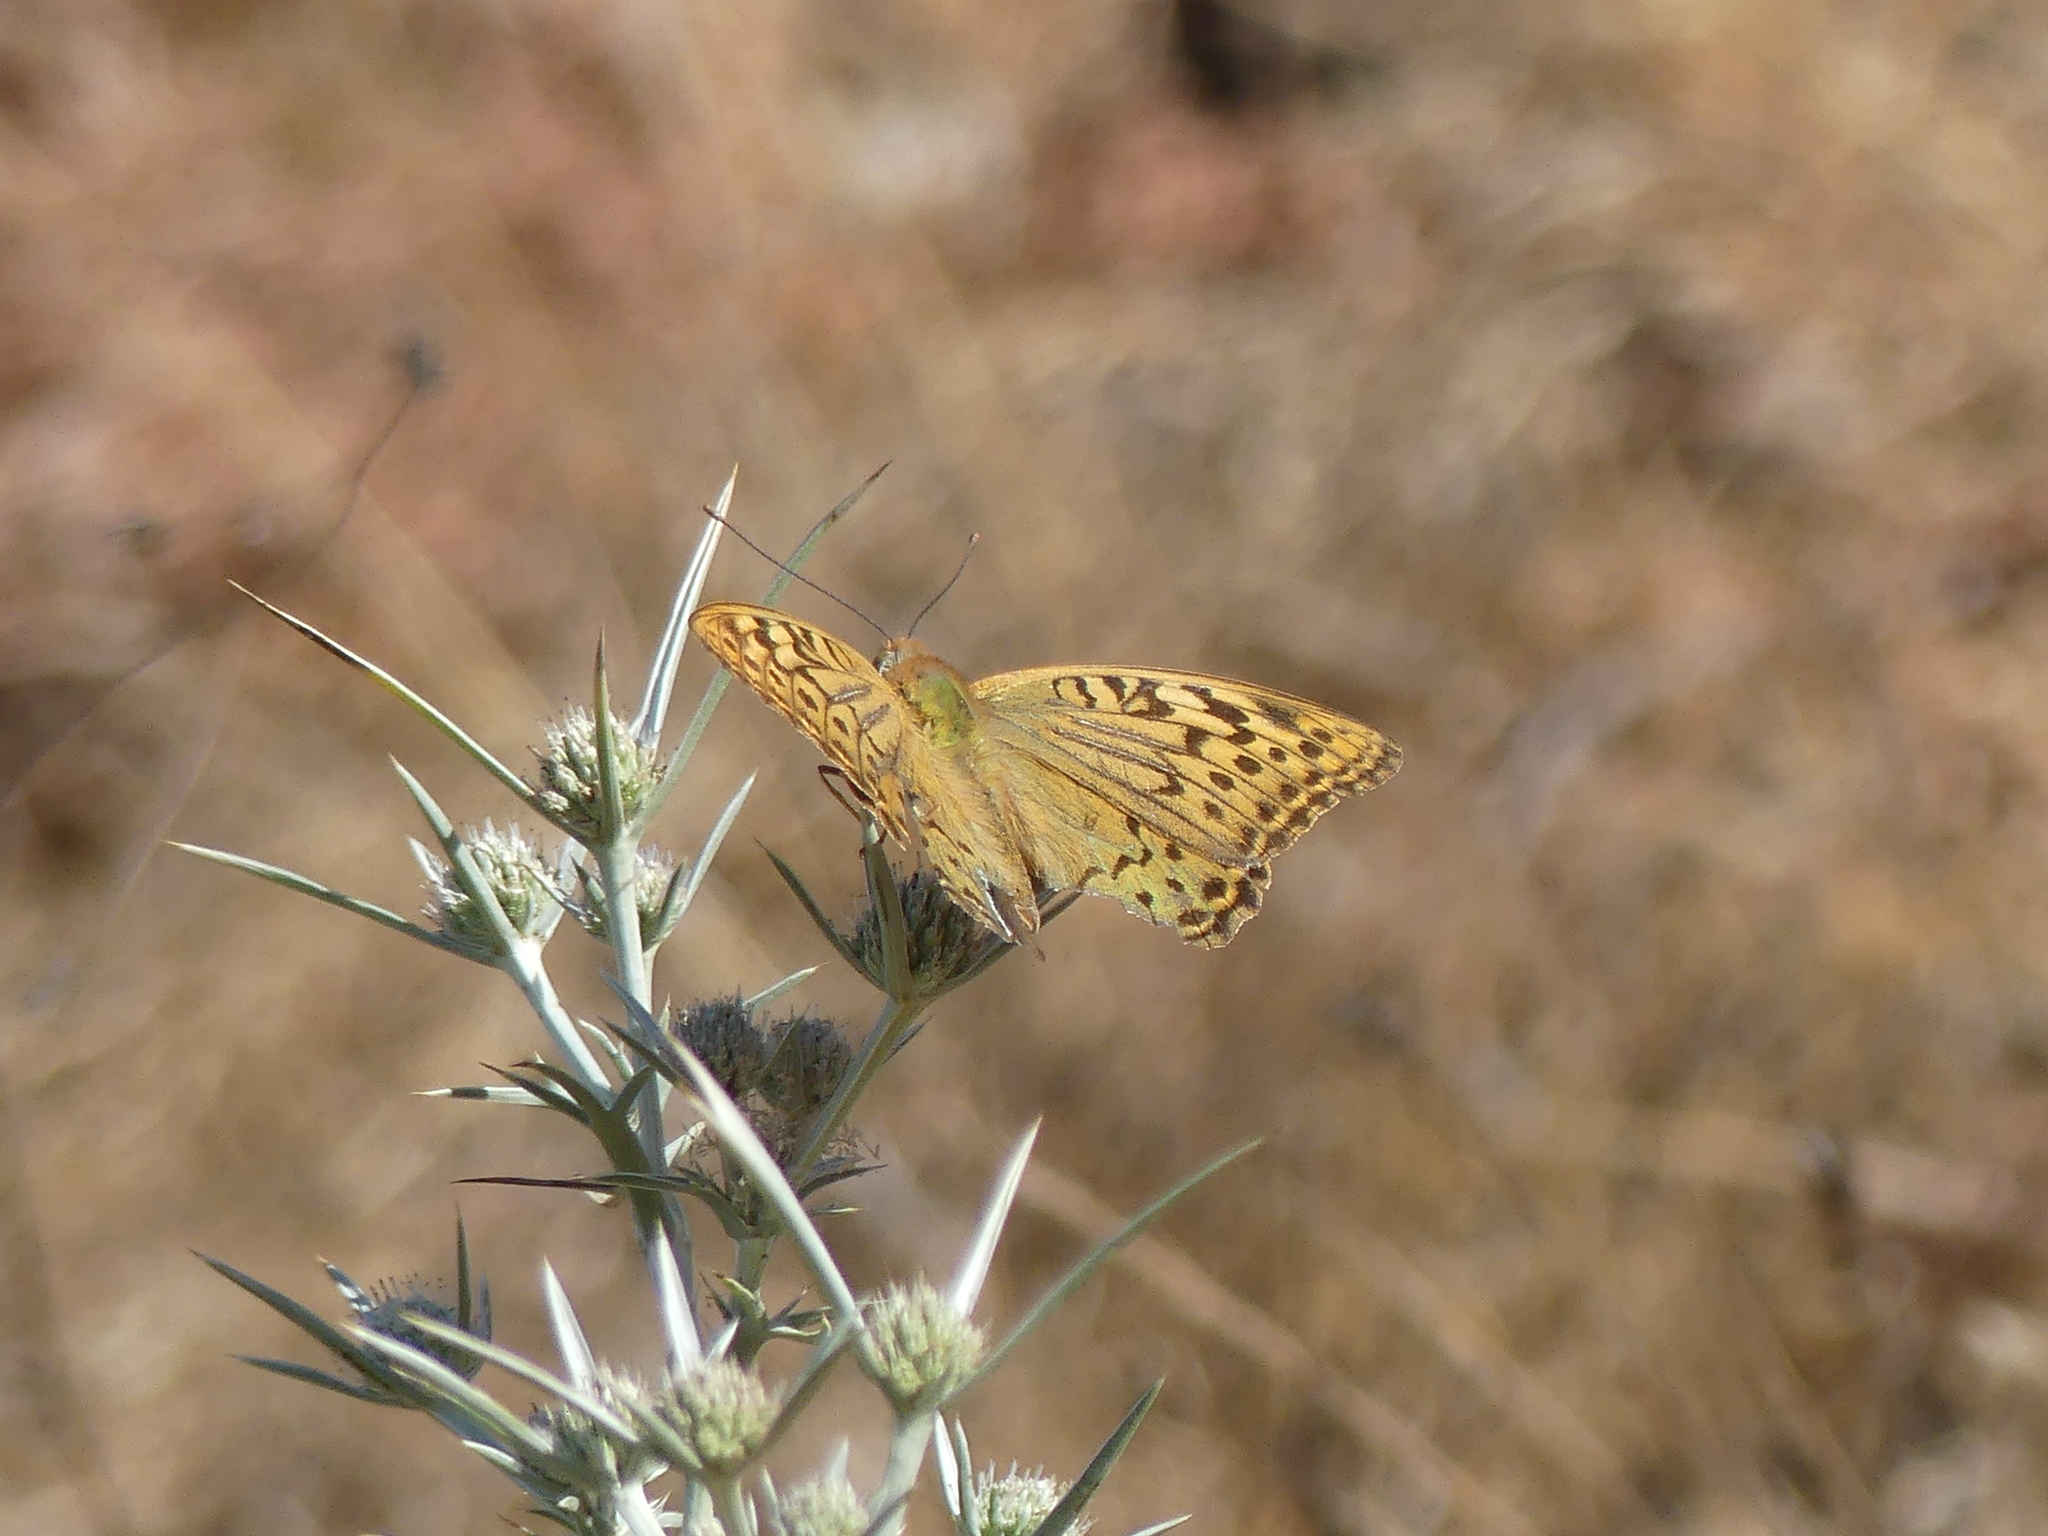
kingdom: Animalia
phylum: Arthropoda
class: Insecta
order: Lepidoptera
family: Nymphalidae
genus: Damora
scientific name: Damora pandora
